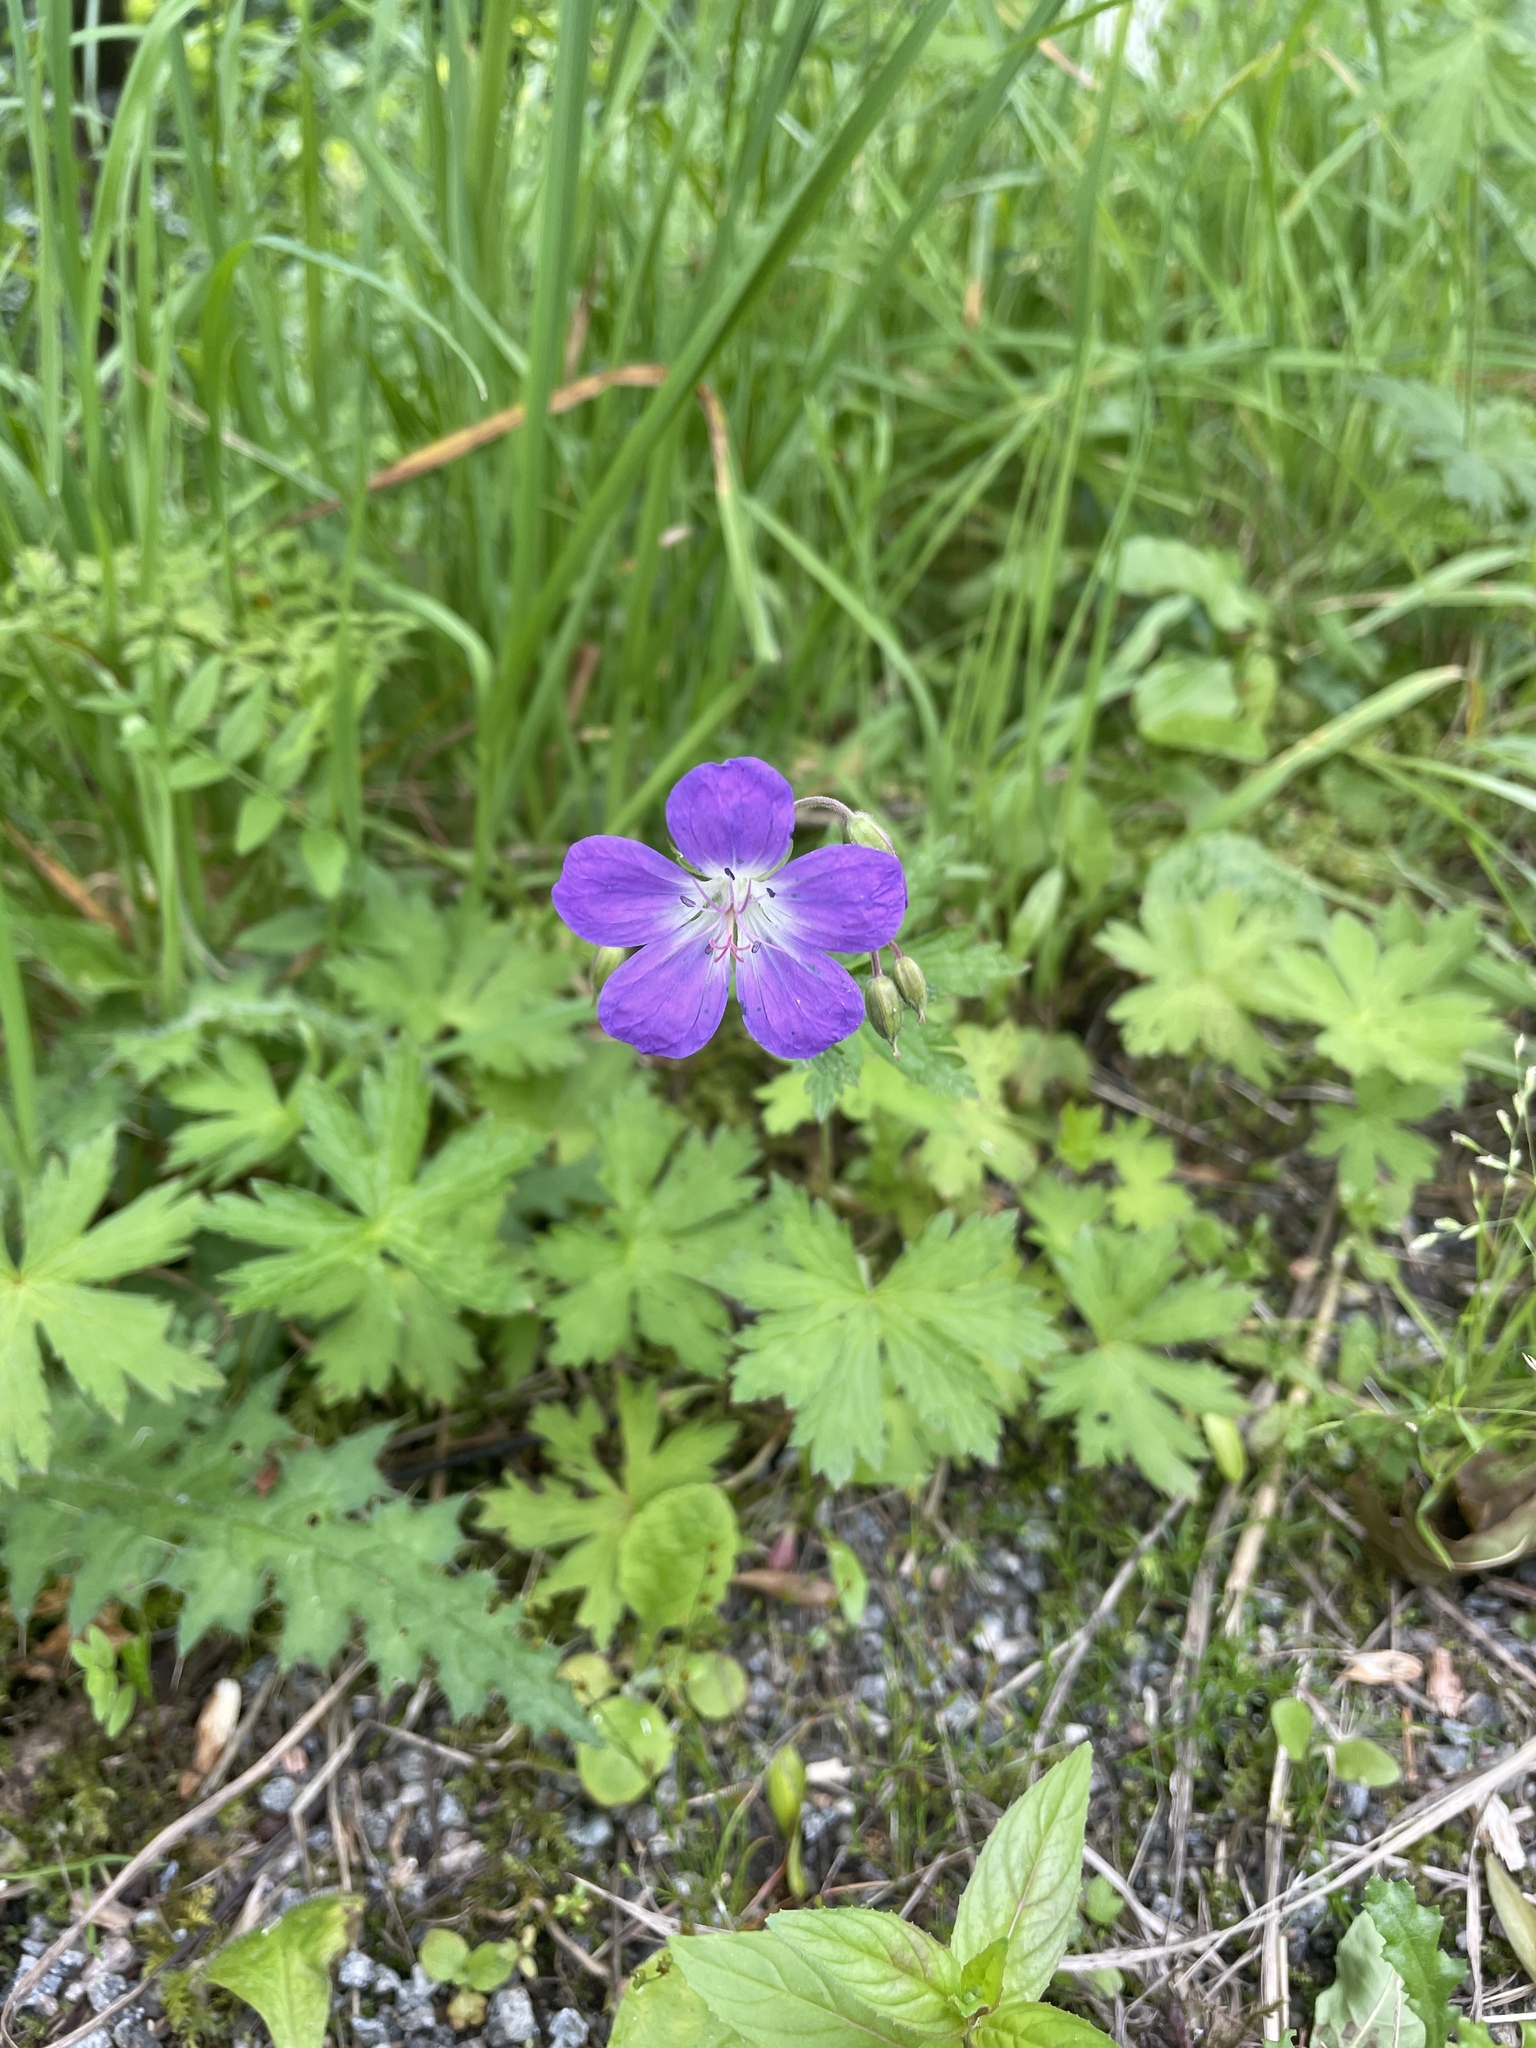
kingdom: Plantae
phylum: Tracheophyta
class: Magnoliopsida
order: Geraniales
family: Geraniaceae
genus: Geranium
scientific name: Geranium sylvaticum
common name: Wood crane's-bill
